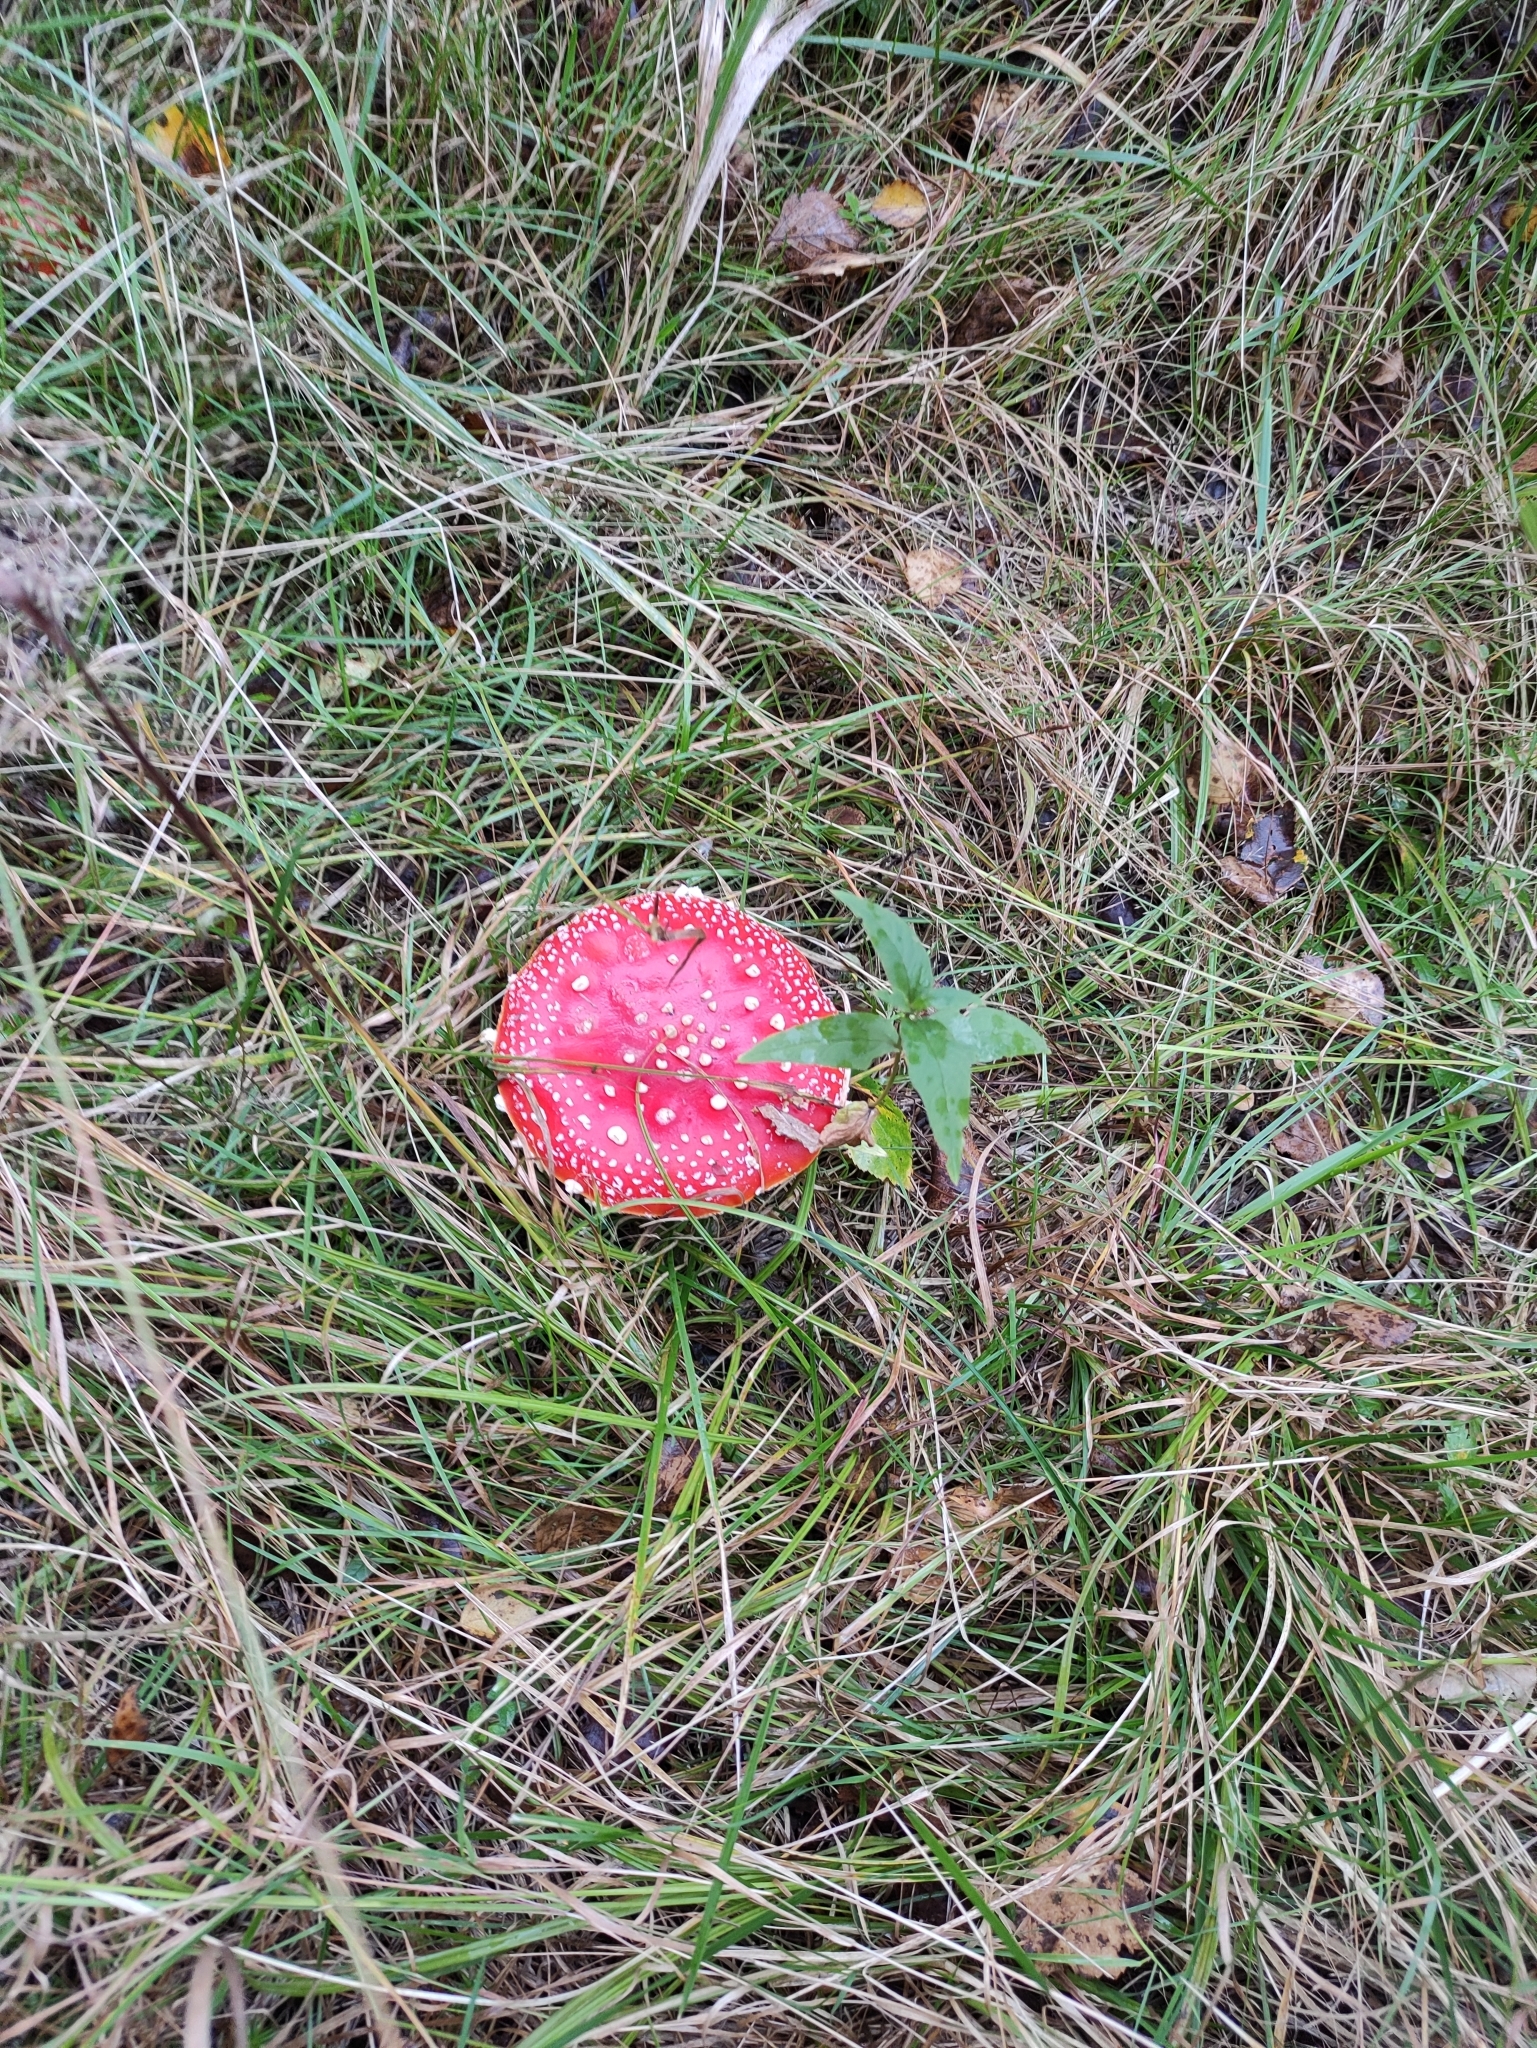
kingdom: Fungi
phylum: Basidiomycota
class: Agaricomycetes
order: Agaricales
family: Amanitaceae
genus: Amanita
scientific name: Amanita muscaria
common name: Fly agaric
